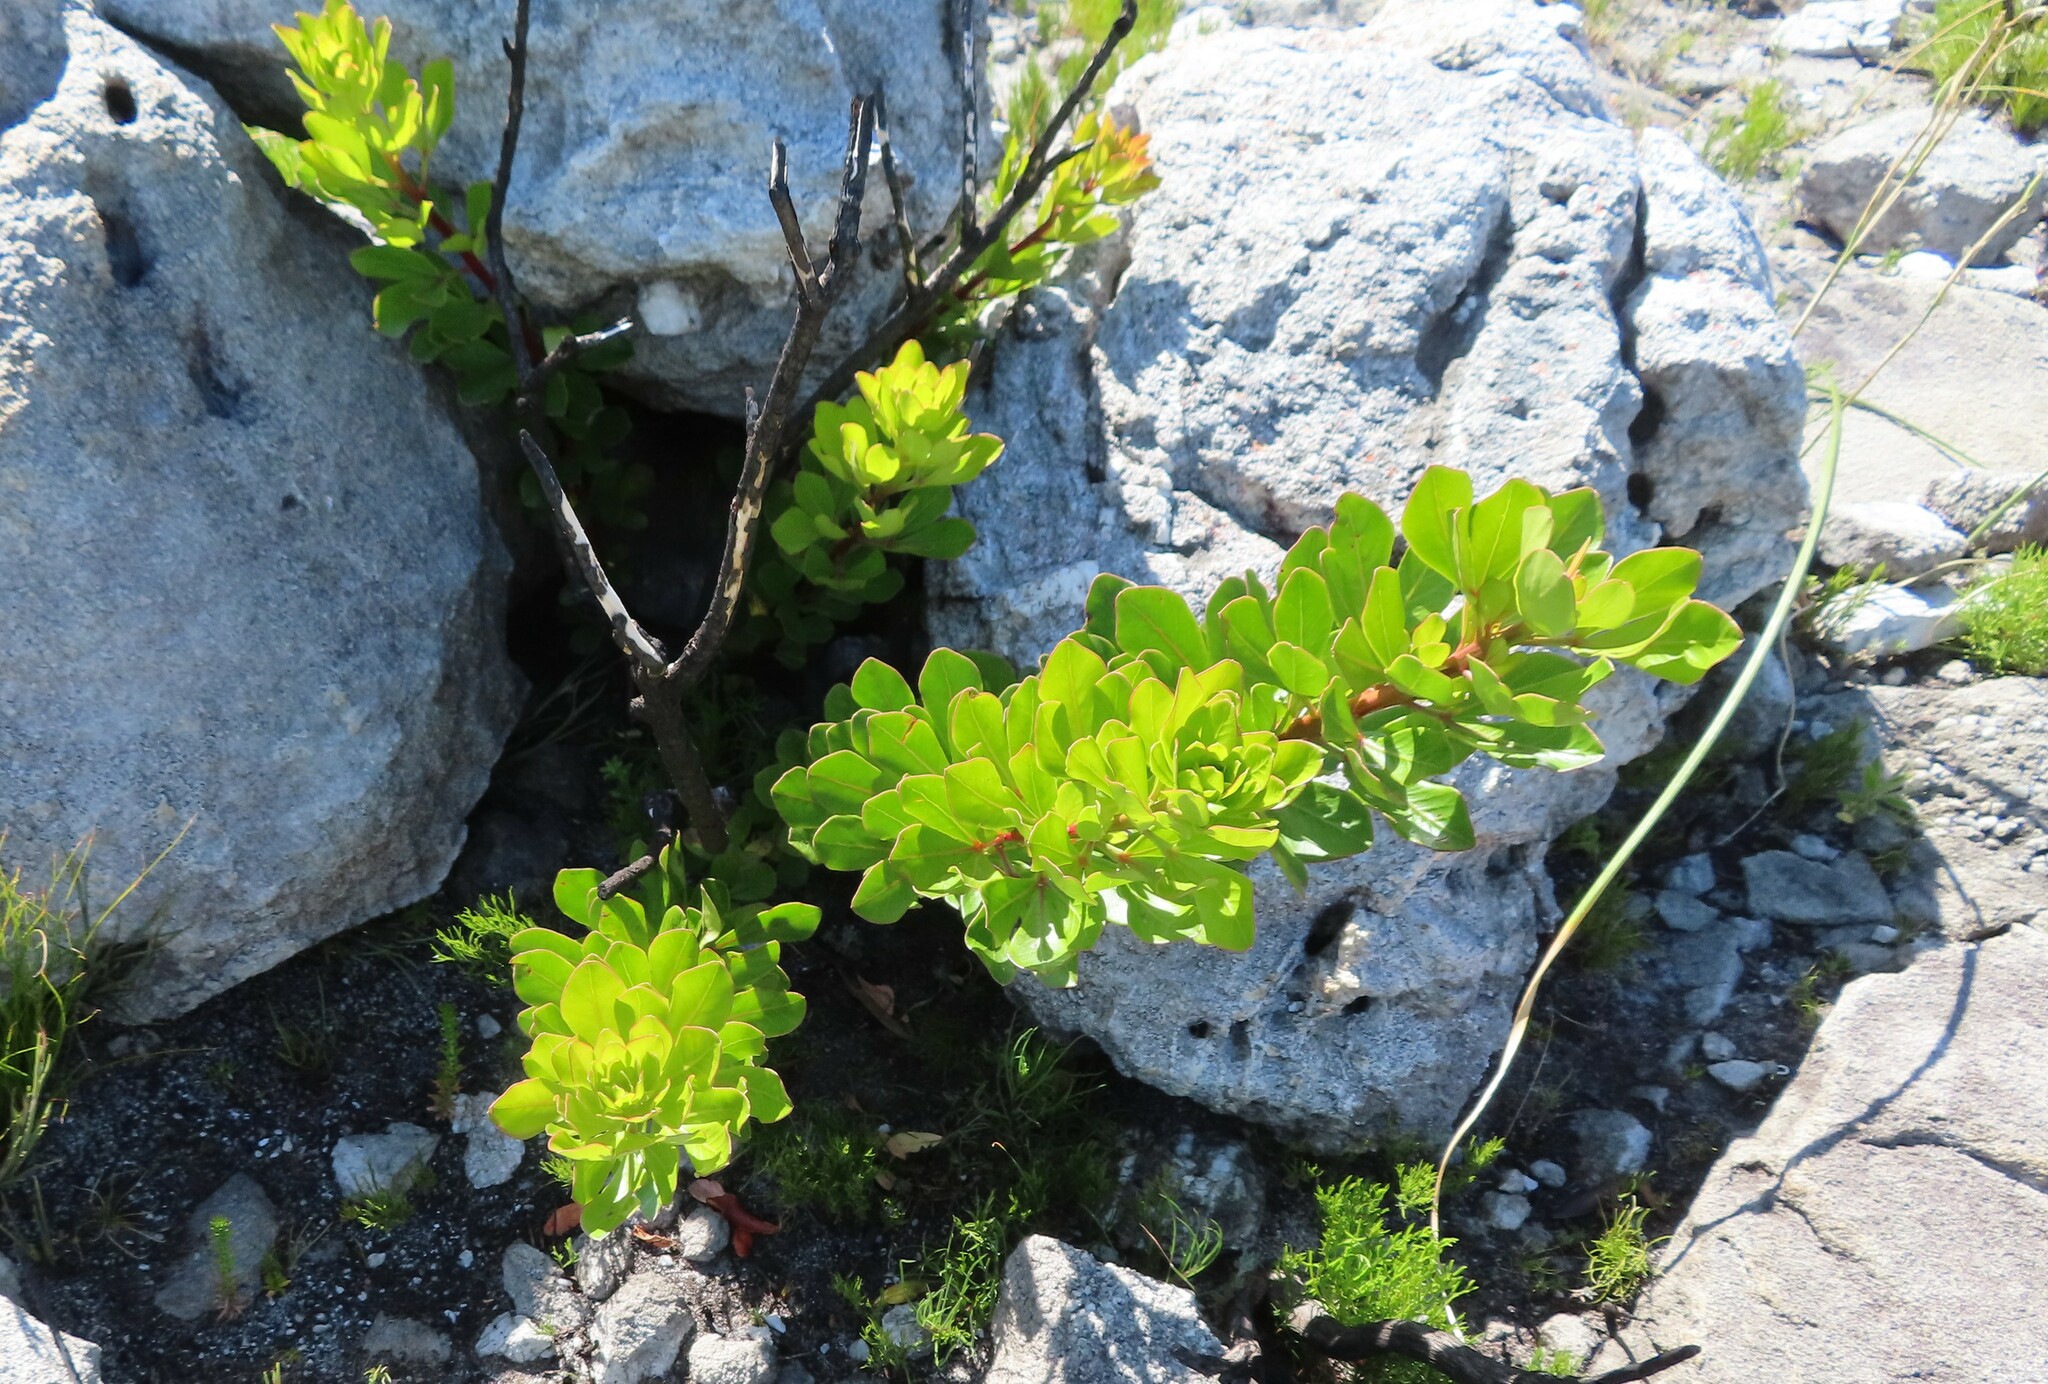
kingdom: Plantae
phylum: Tracheophyta
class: Magnoliopsida
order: Sapindales
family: Anacardiaceae
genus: Searsia
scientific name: Searsia scytophylla
